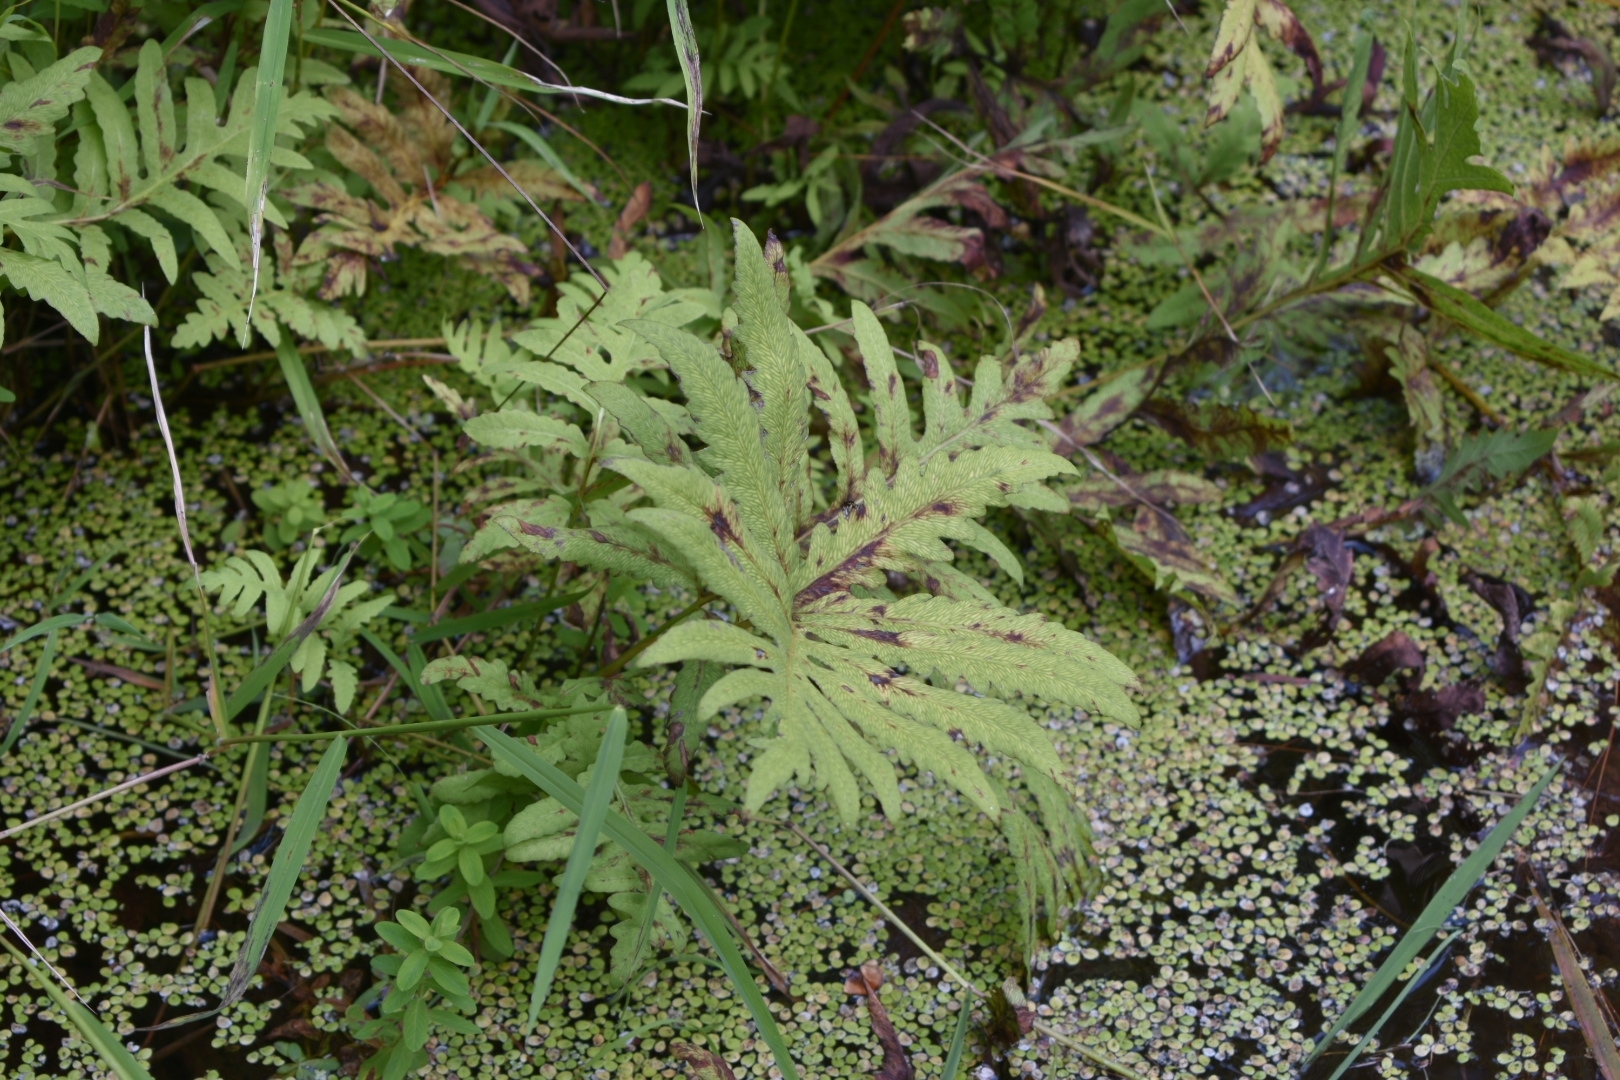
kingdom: Plantae
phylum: Tracheophyta
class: Polypodiopsida
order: Polypodiales
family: Onocleaceae
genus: Onoclea
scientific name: Onoclea sensibilis
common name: Sensitive fern
